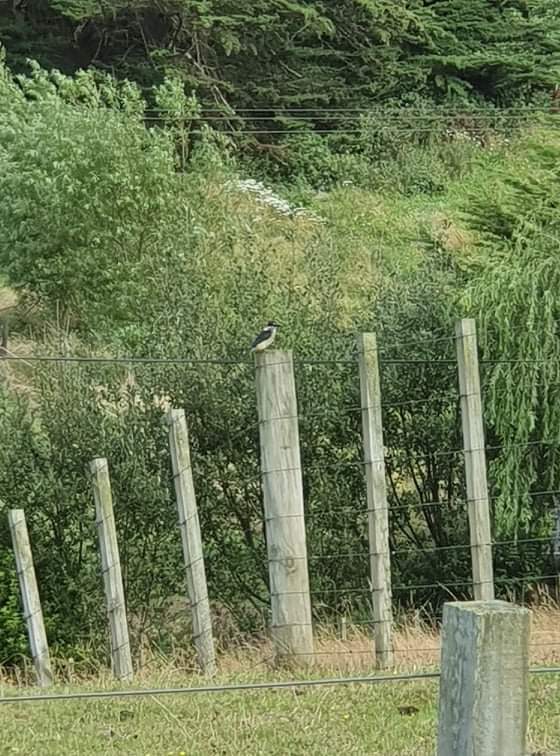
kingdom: Animalia
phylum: Chordata
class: Aves
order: Coraciiformes
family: Alcedinidae
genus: Todiramphus
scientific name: Todiramphus sanctus
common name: Sacred kingfisher
